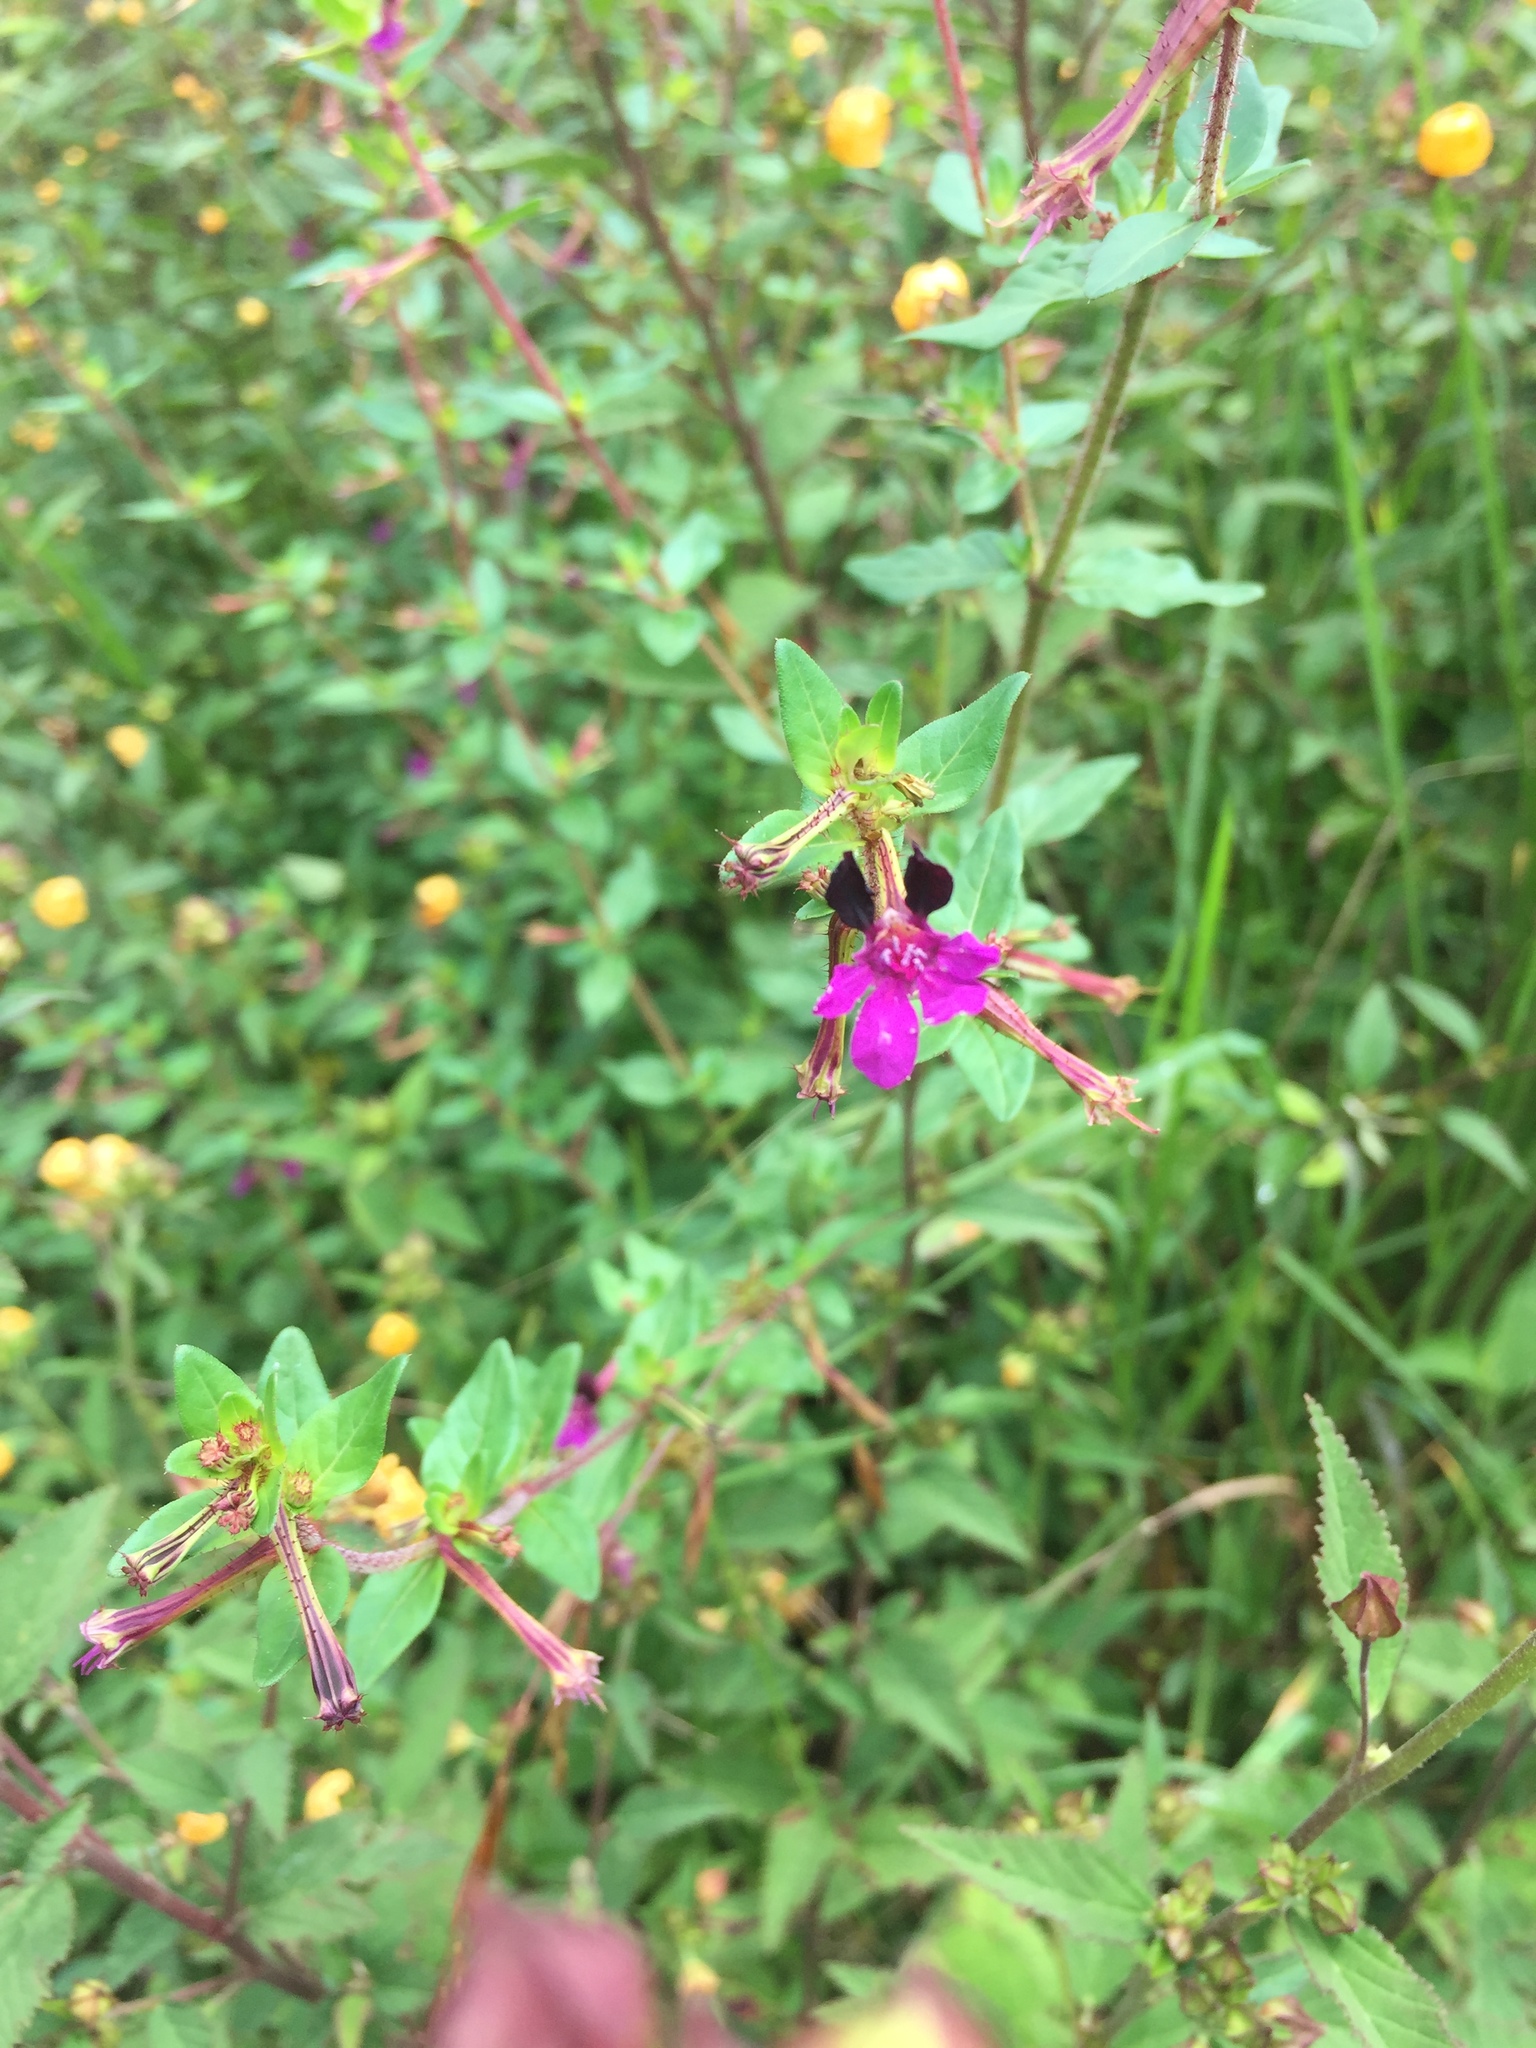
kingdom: Plantae
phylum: Tracheophyta
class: Magnoliopsida
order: Myrtales
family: Lythraceae
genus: Cuphea
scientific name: Cuphea aequipetala
